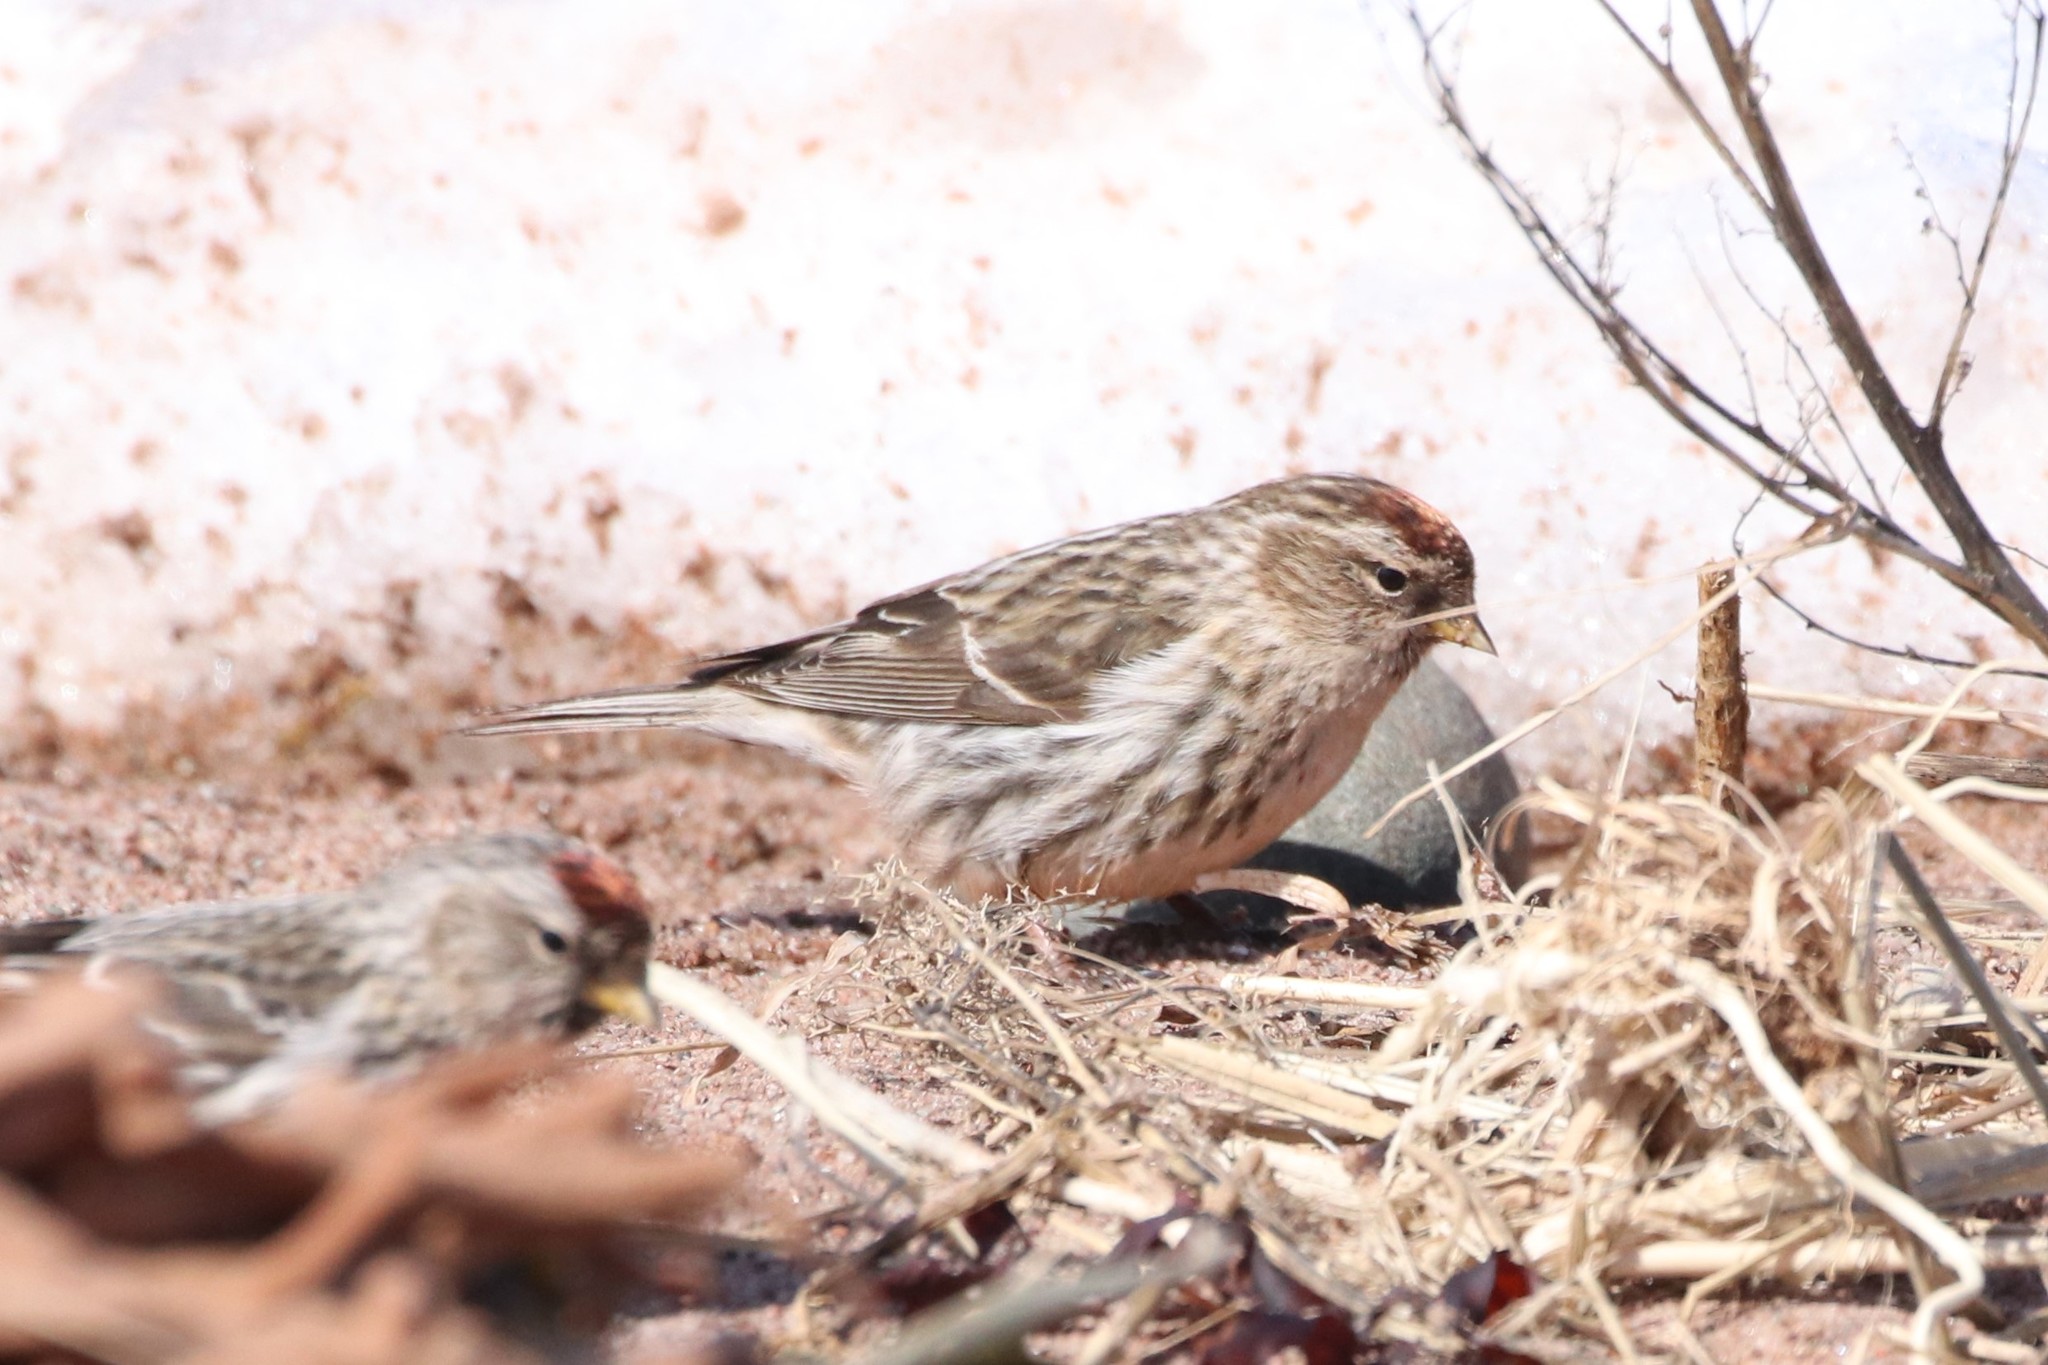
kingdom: Animalia
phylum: Chordata
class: Aves
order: Passeriformes
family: Fringillidae
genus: Acanthis
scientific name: Acanthis flammea
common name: Common redpoll
